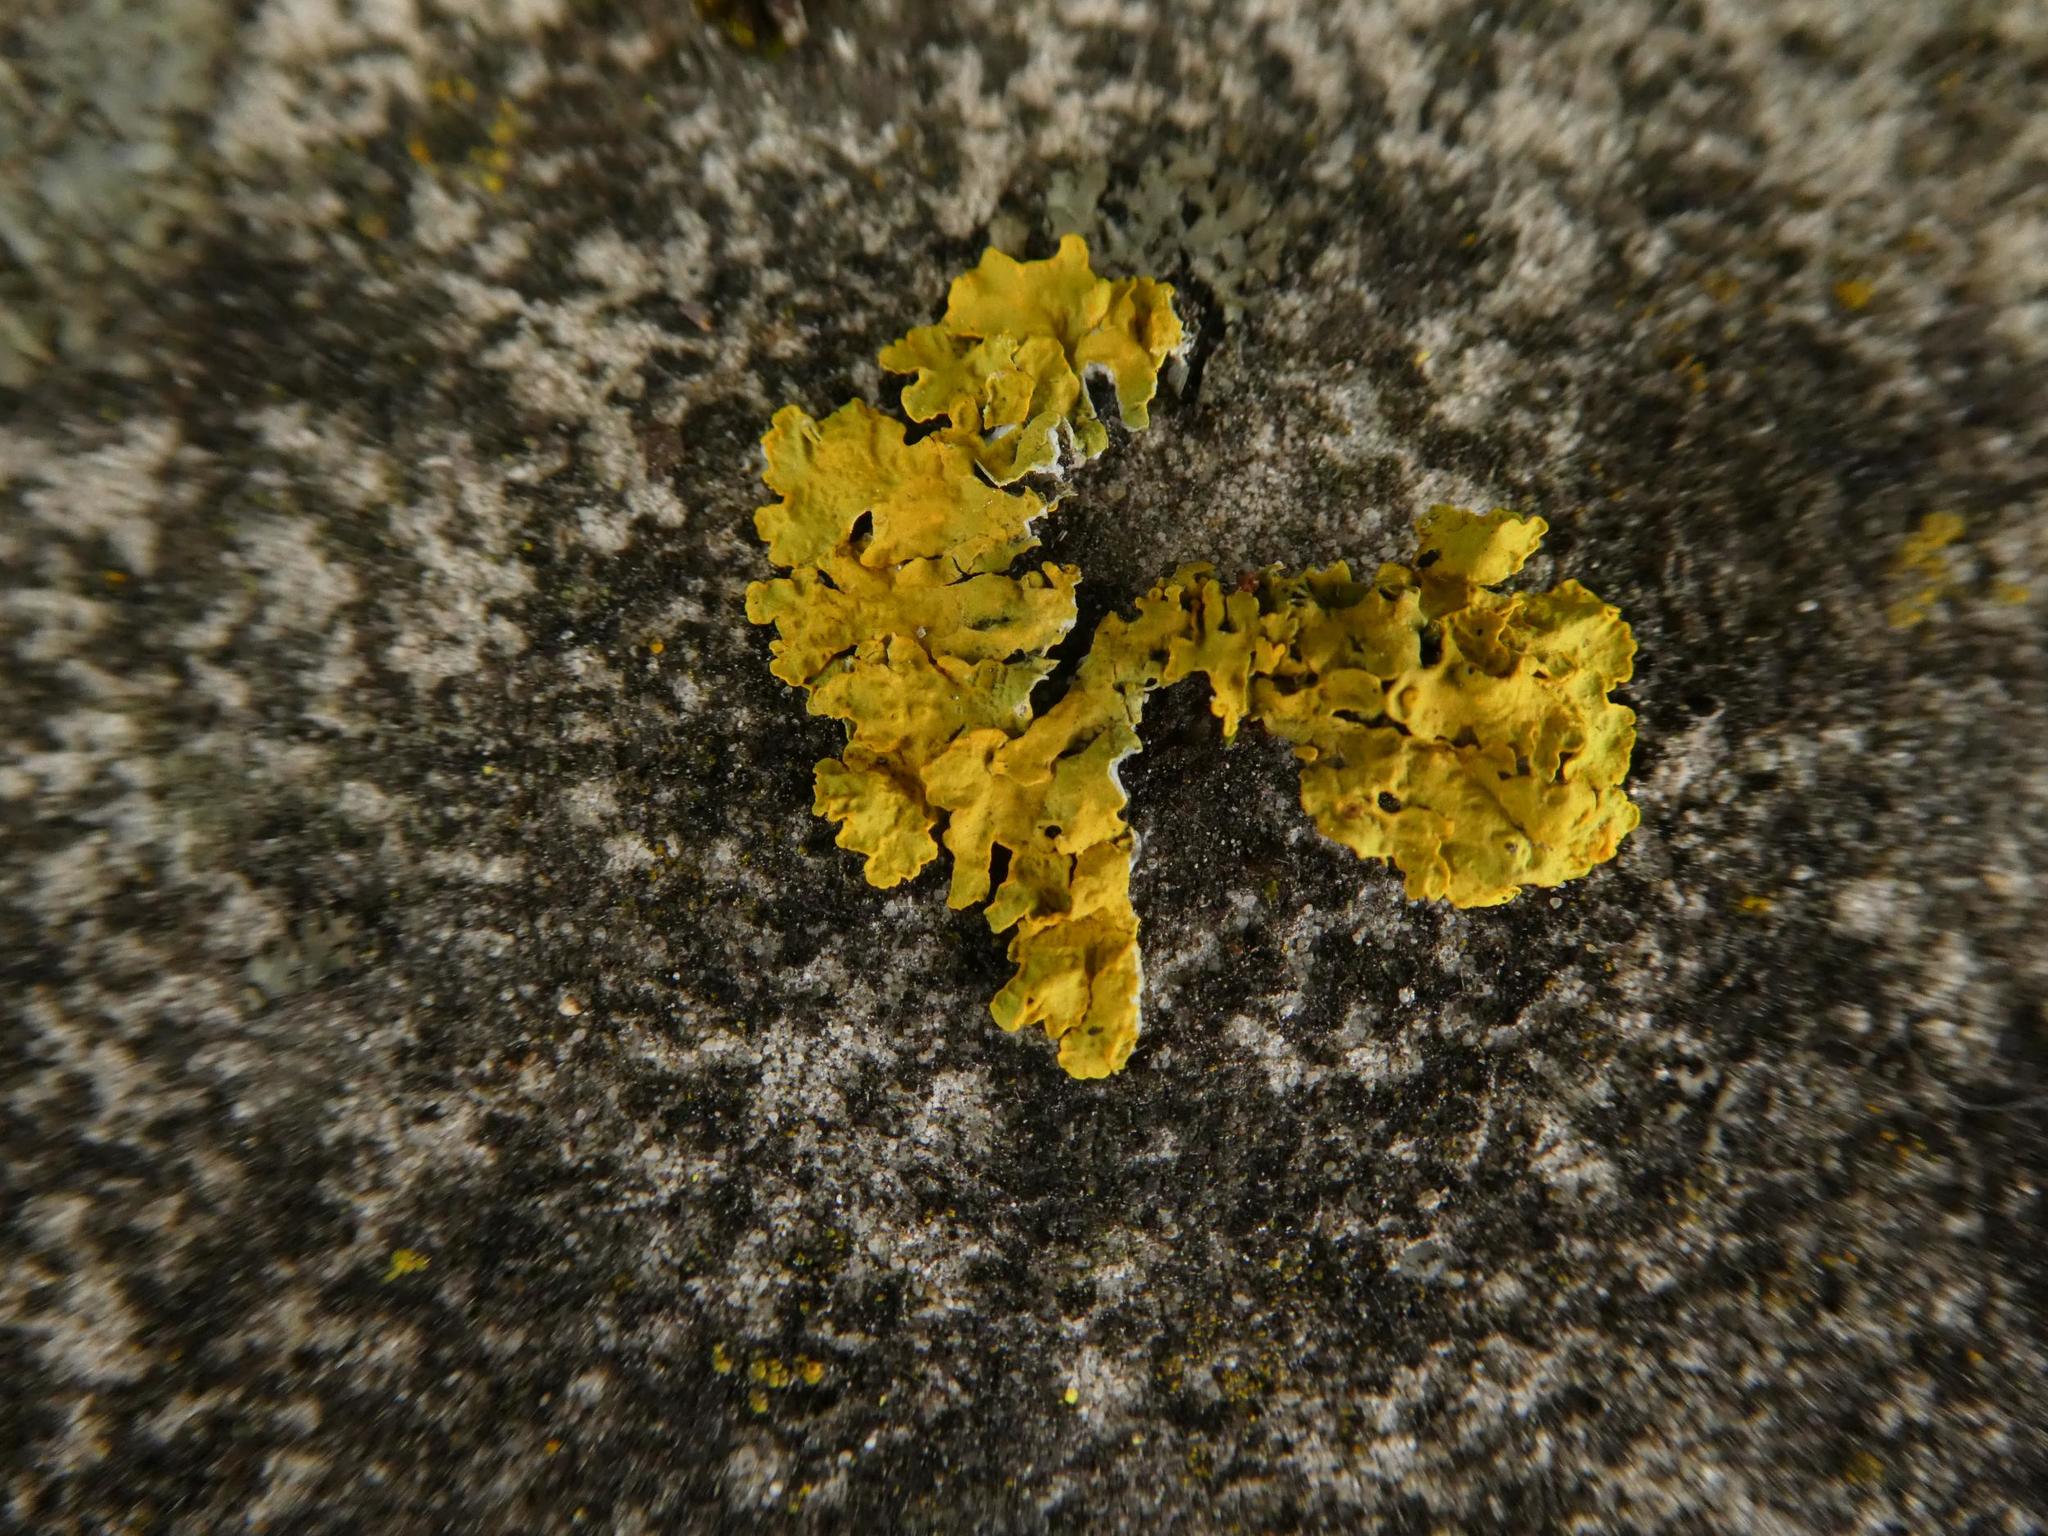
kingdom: Fungi
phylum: Ascomycota
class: Lecanoromycetes
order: Teloschistales
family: Teloschistaceae
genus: Xanthoria
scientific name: Xanthoria parietina
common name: Common orange lichen
